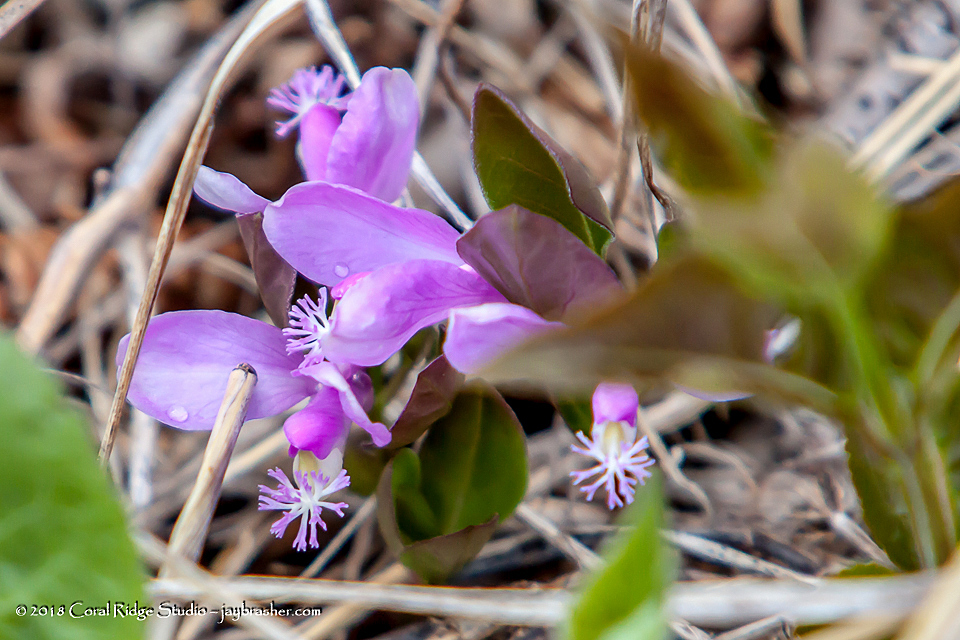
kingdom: Plantae
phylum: Tracheophyta
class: Magnoliopsida
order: Fabales
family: Polygalaceae
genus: Polygaloides
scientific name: Polygaloides paucifolia
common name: Bird-on-the-wing
